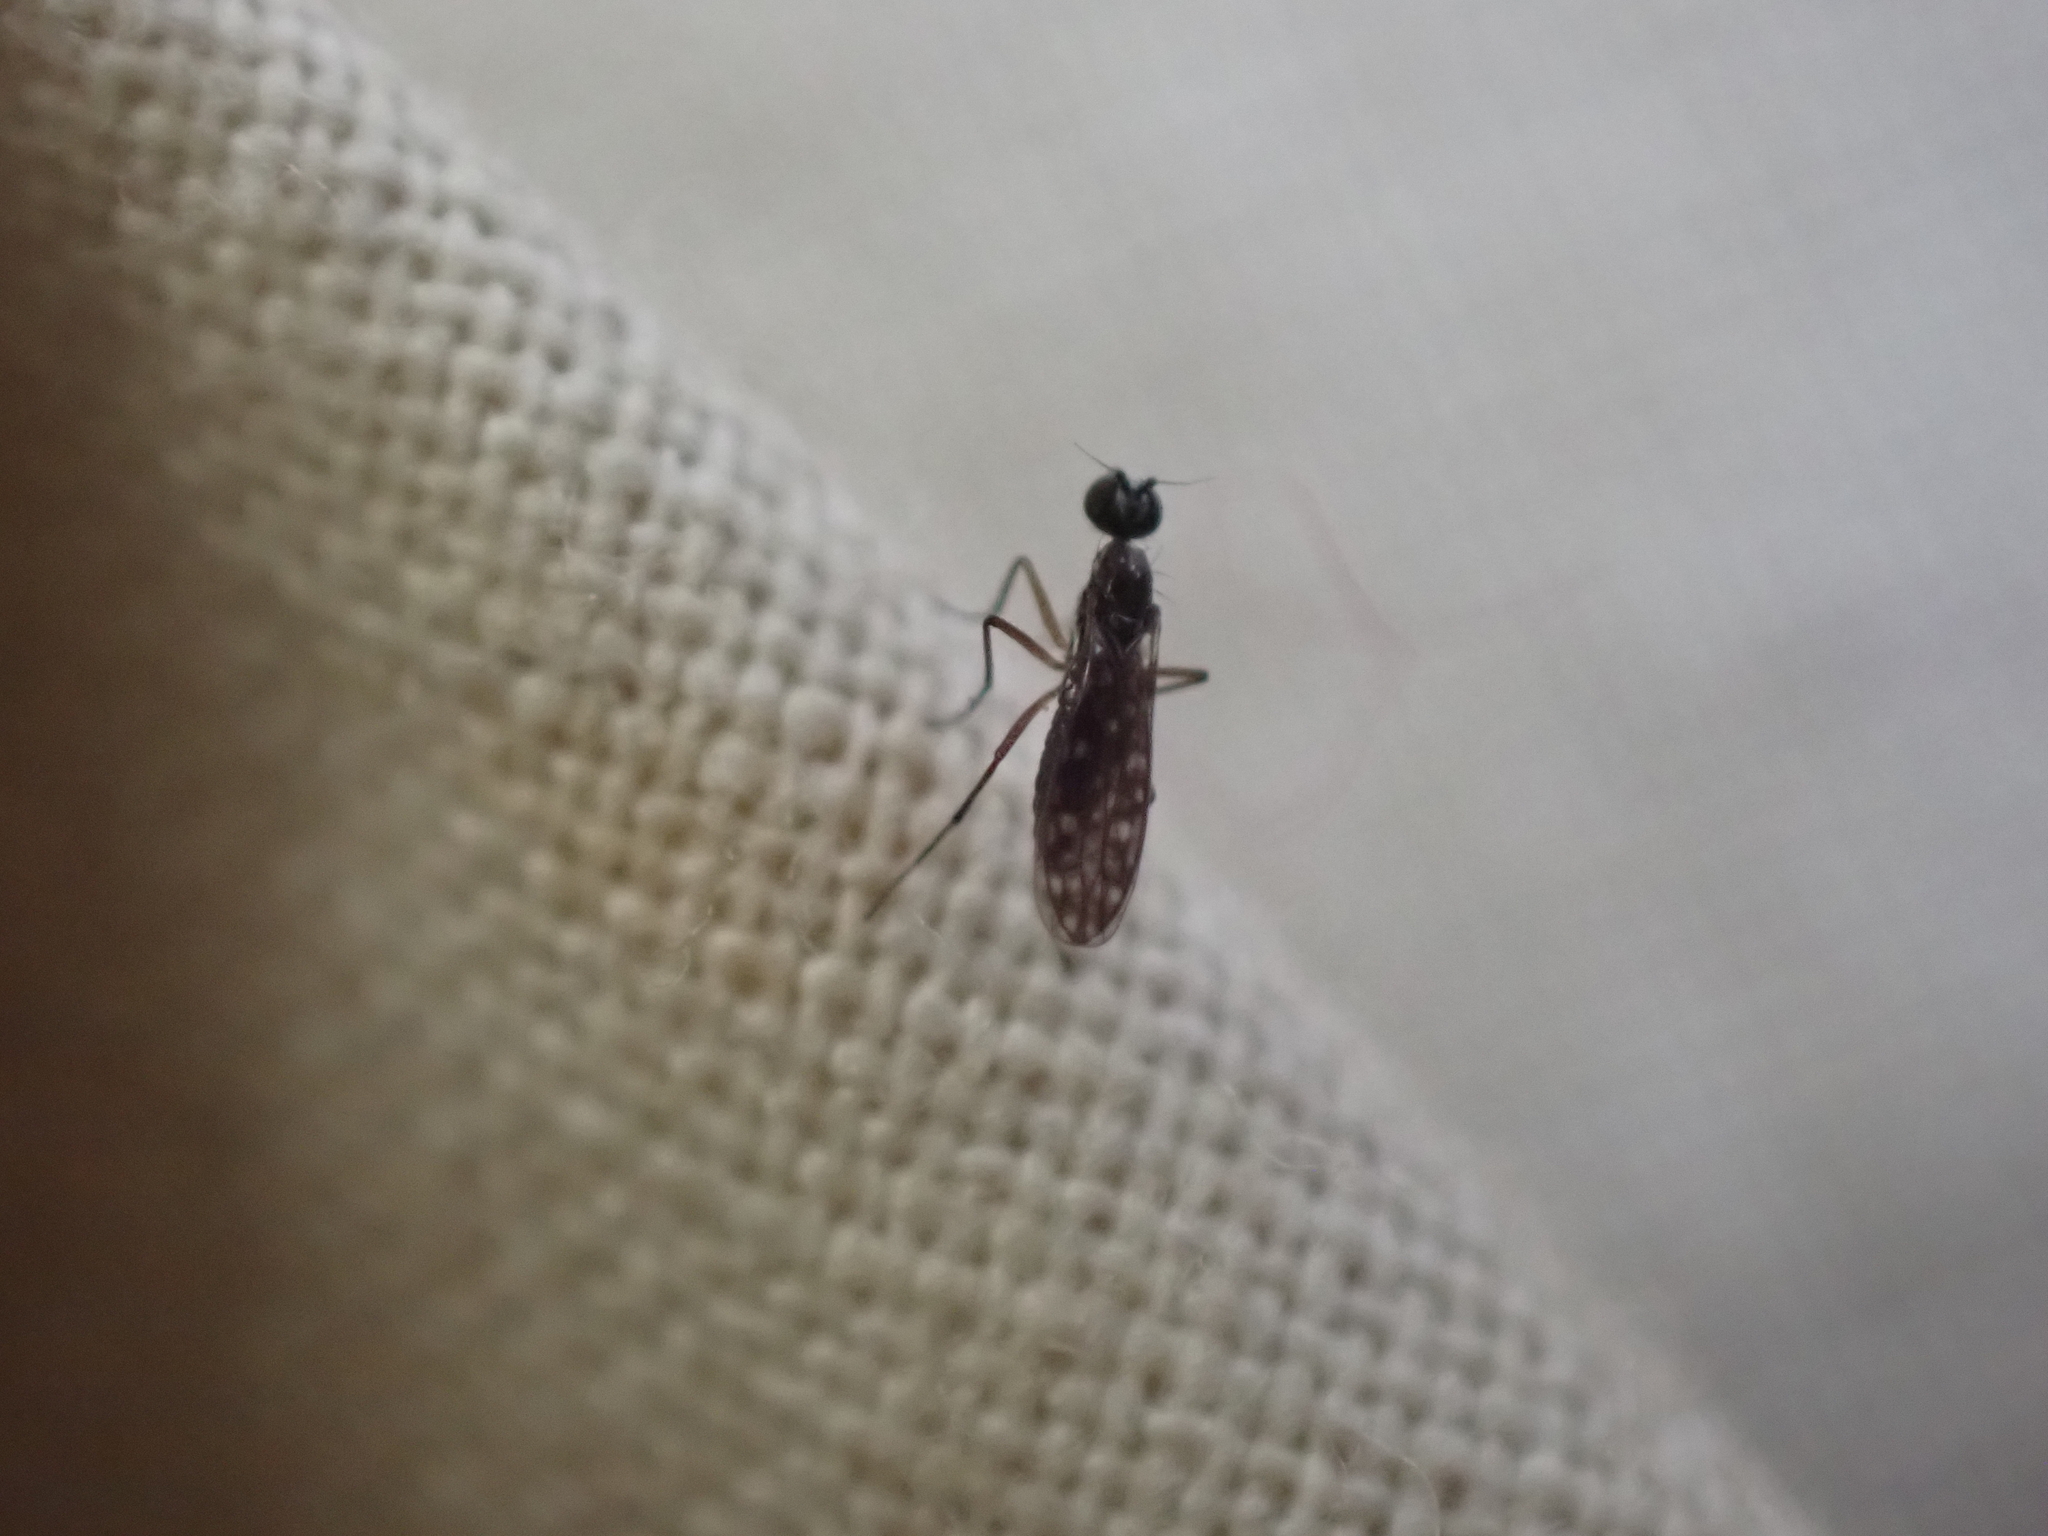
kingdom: Animalia
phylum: Arthropoda
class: Insecta
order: Diptera
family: Empididae
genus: Dolichocephala
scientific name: Dolichocephala argus
